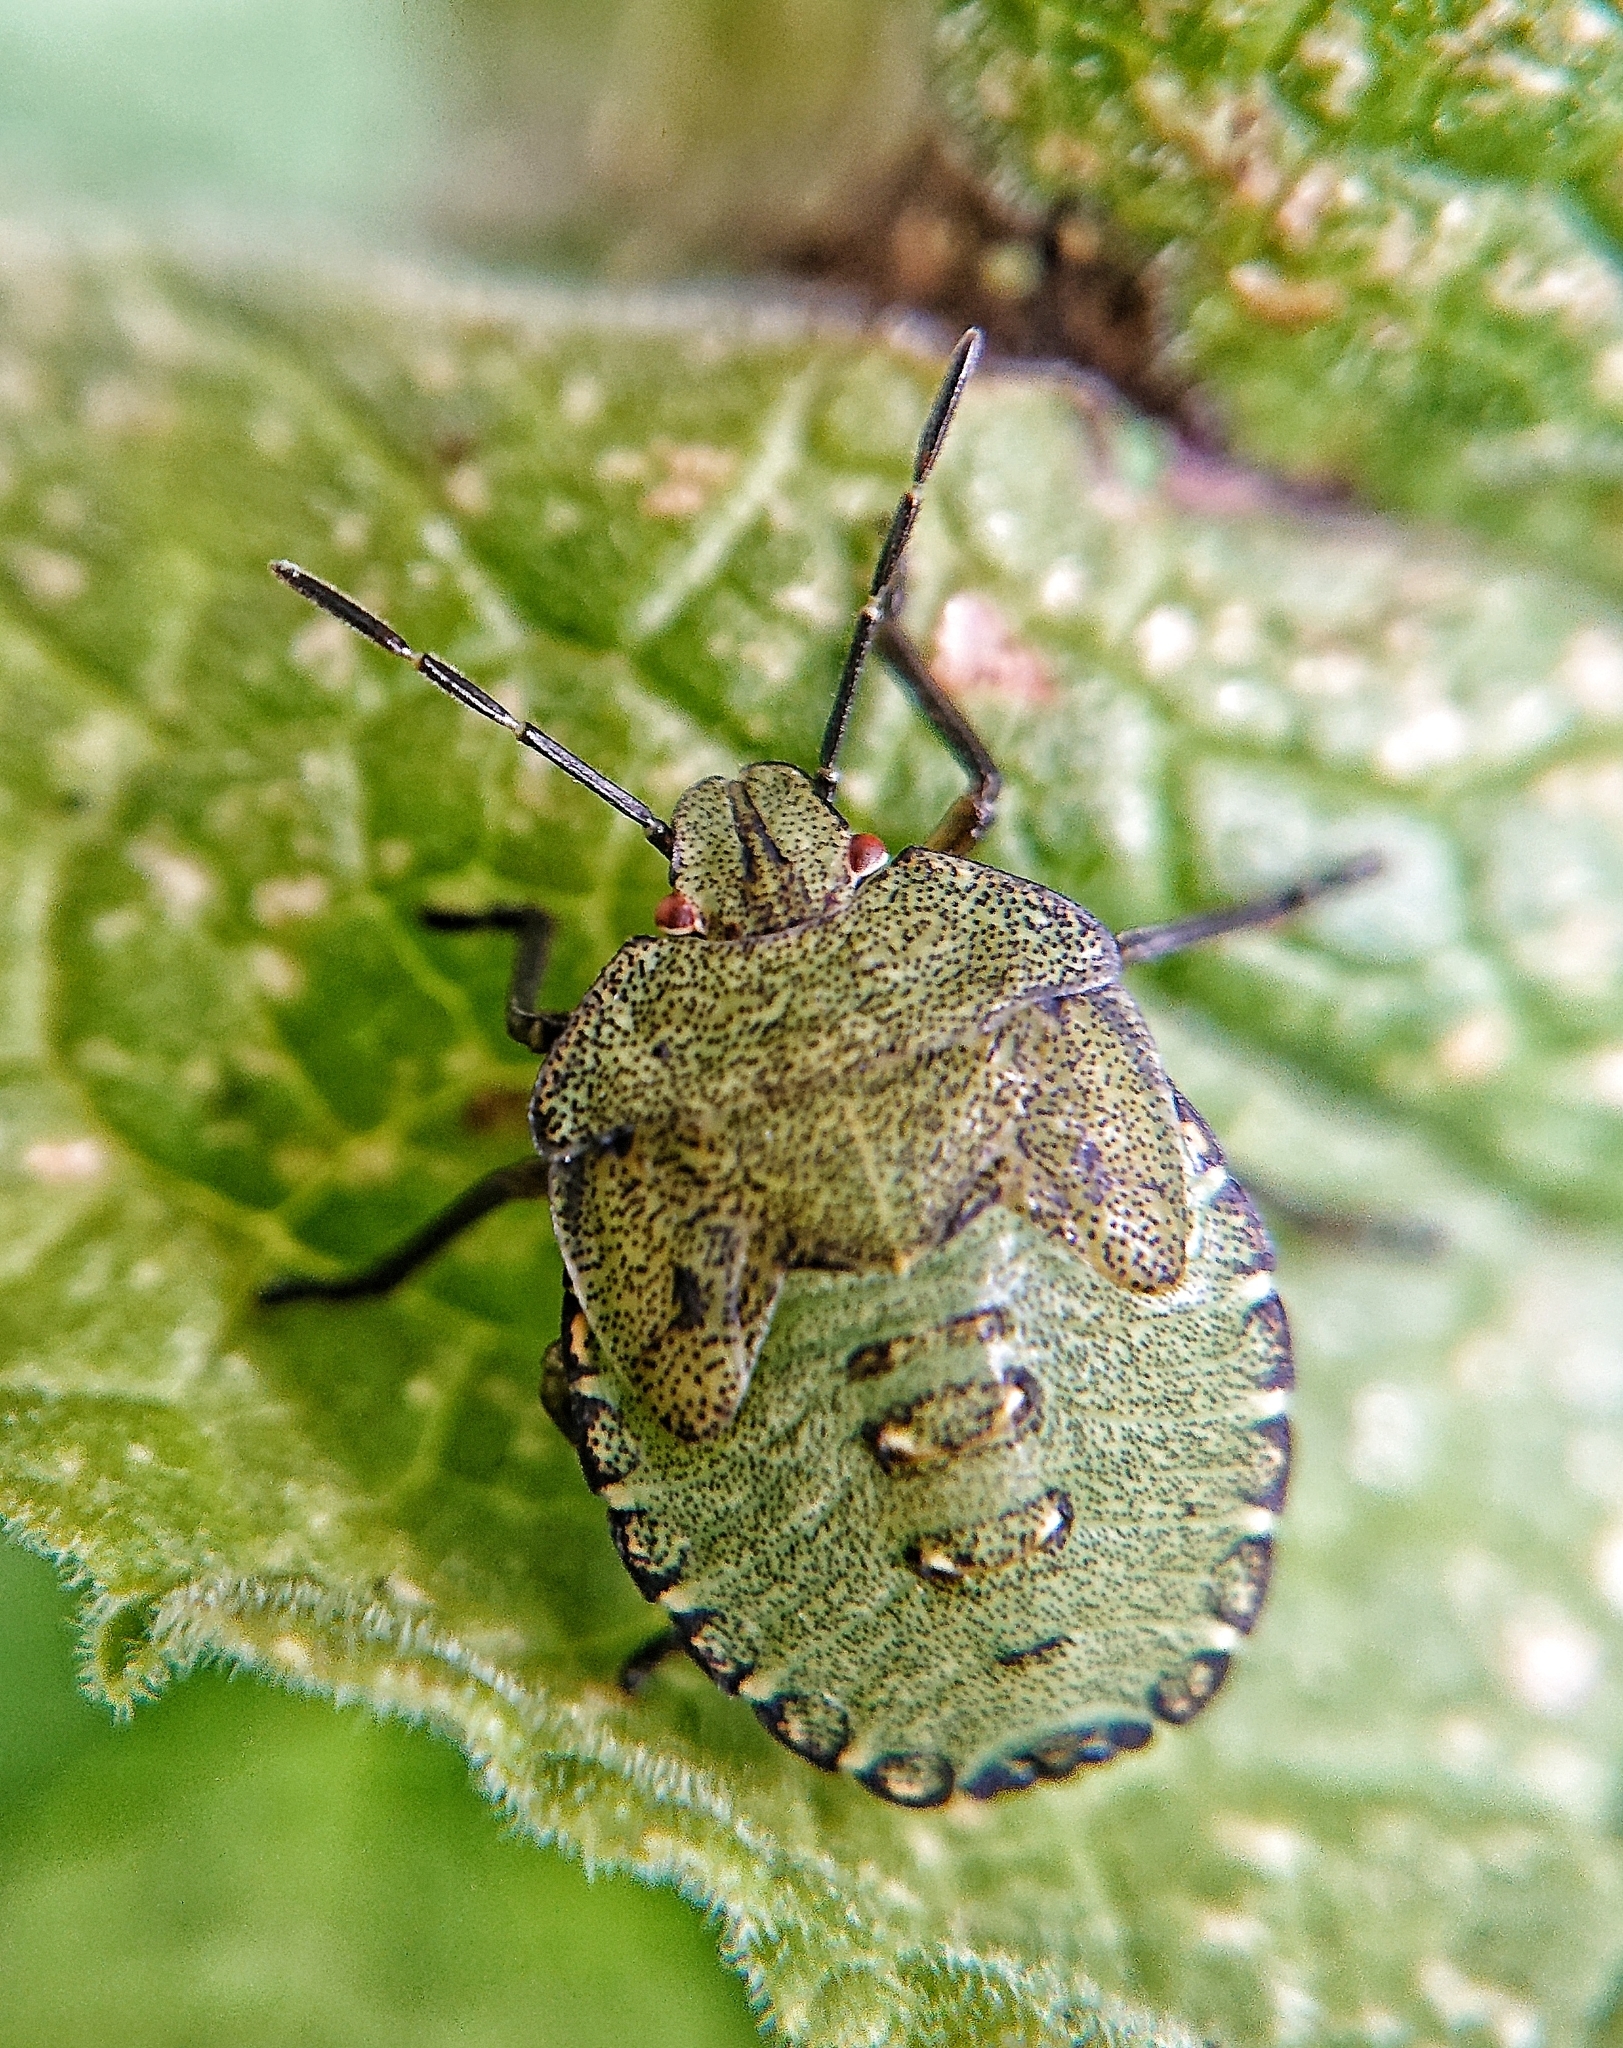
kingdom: Animalia
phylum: Arthropoda
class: Insecta
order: Hemiptera
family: Pentatomidae
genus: Palomena
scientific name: Palomena prasina
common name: Green shieldbug
